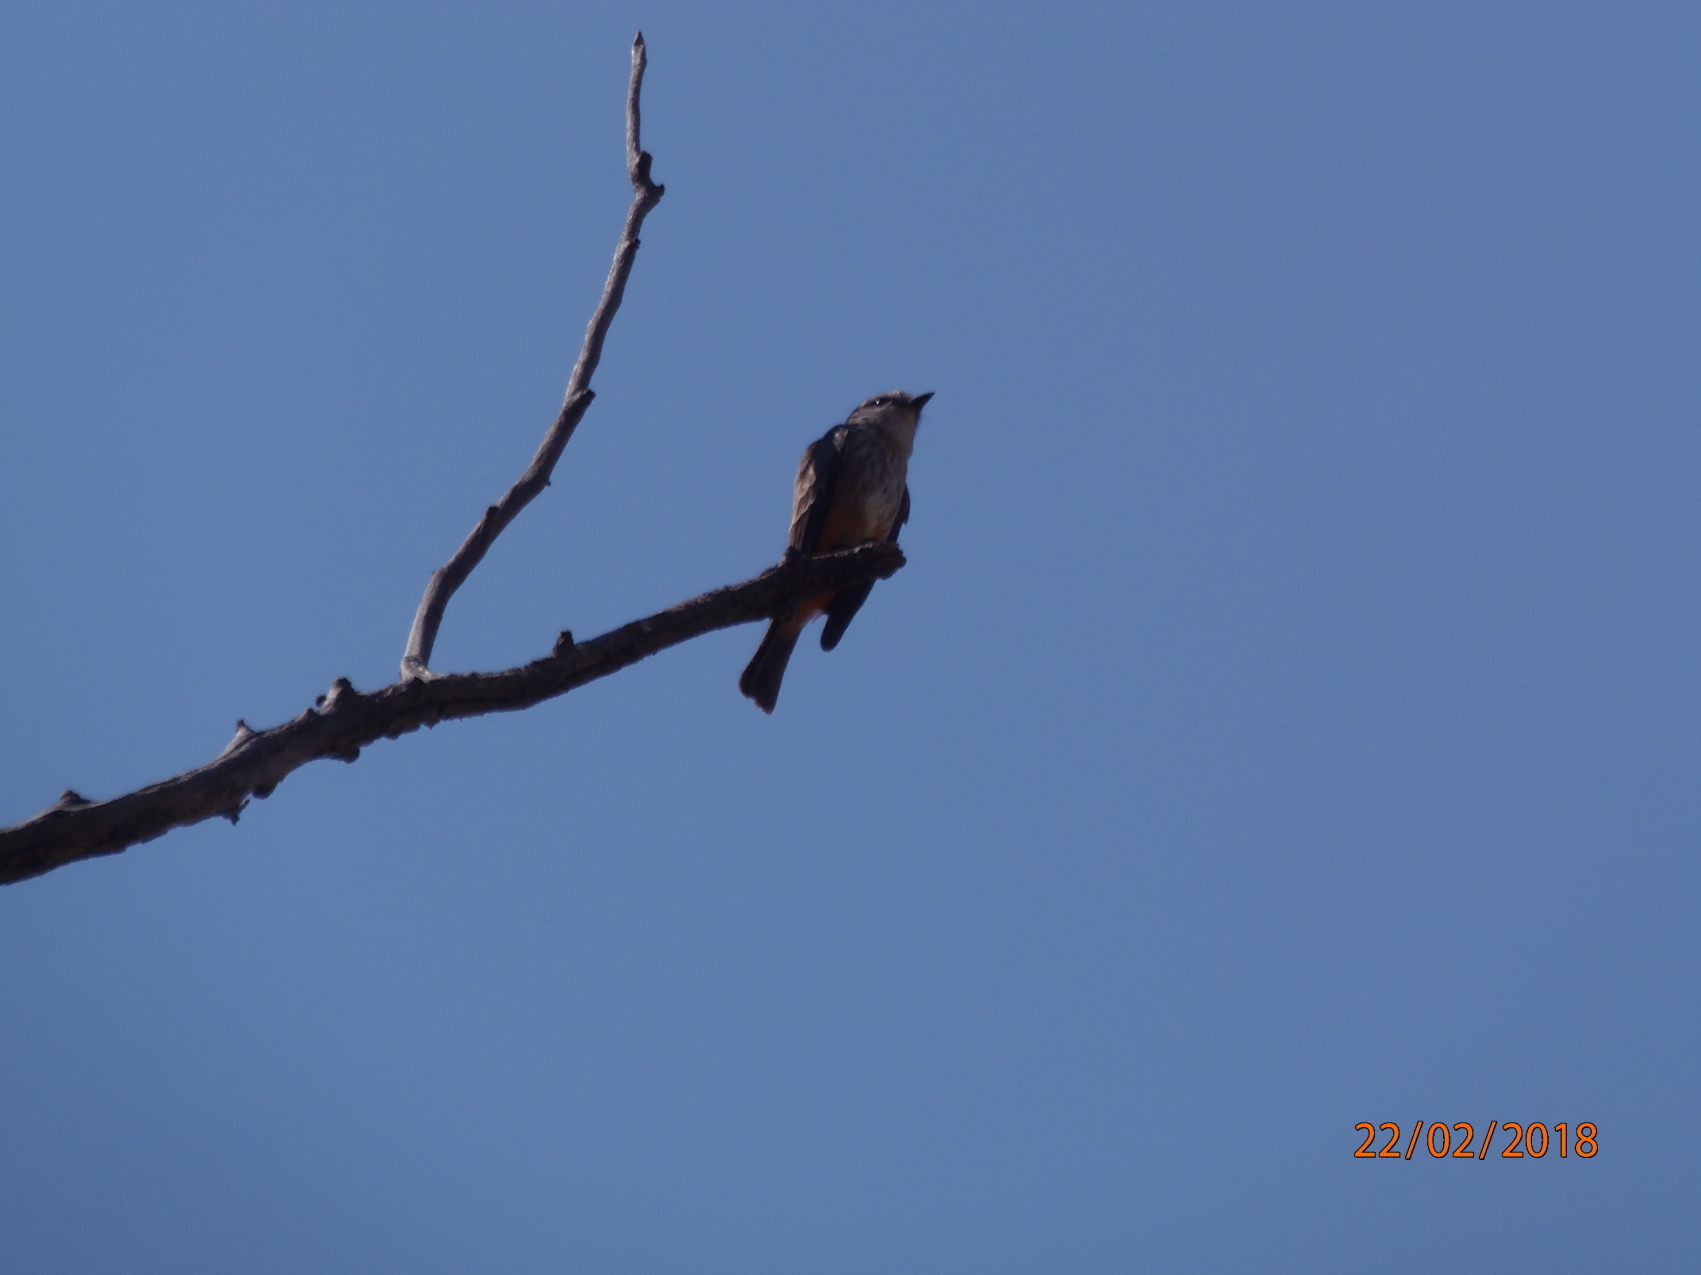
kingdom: Animalia
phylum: Chordata
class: Aves
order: Passeriformes
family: Tyrannidae
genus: Pyrocephalus
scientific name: Pyrocephalus rubinus
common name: Vermilion flycatcher
